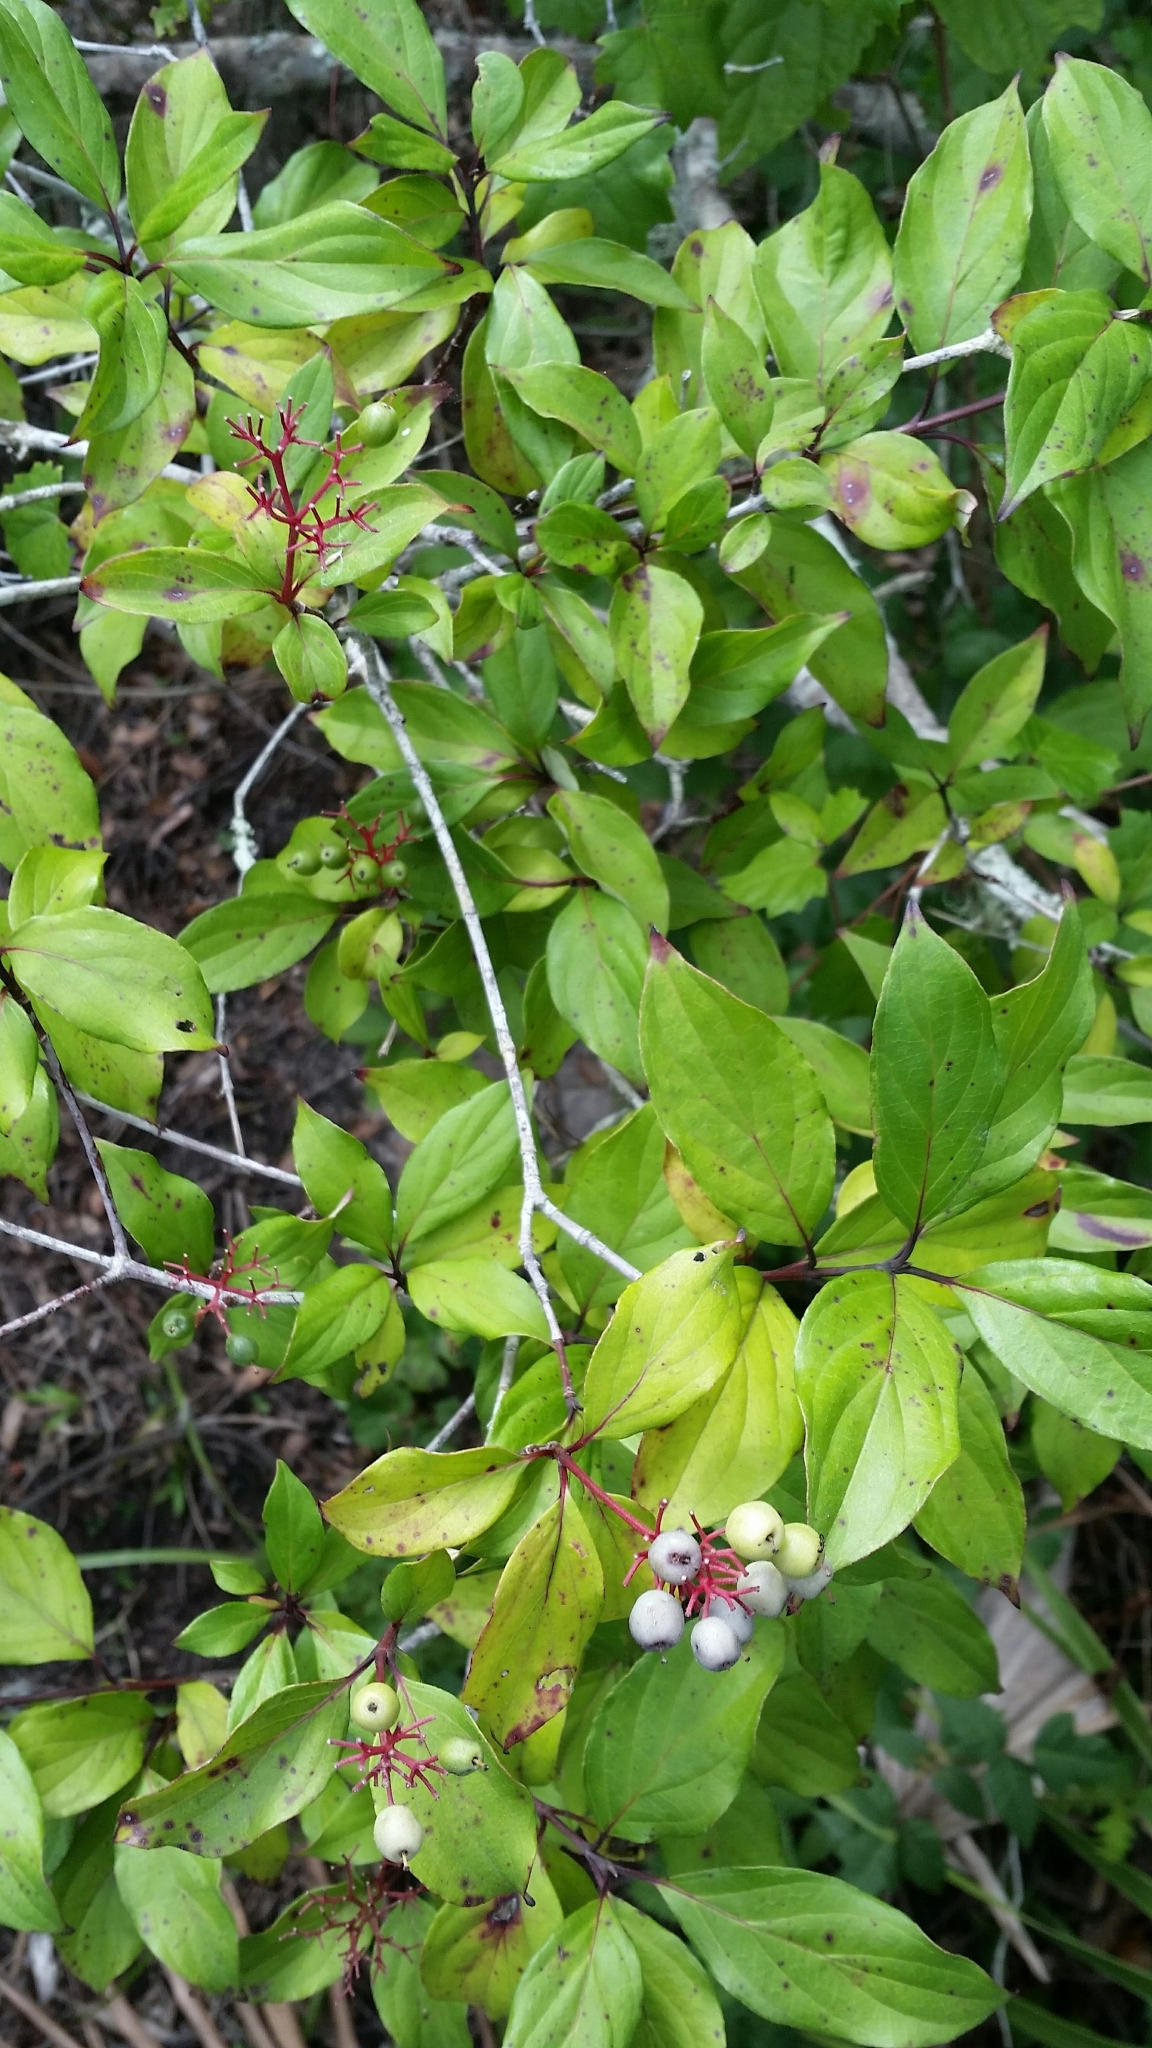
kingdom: Plantae
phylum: Tracheophyta
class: Magnoliopsida
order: Cornales
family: Cornaceae
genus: Cornus
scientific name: Cornus foemina
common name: Swamp dogwood
